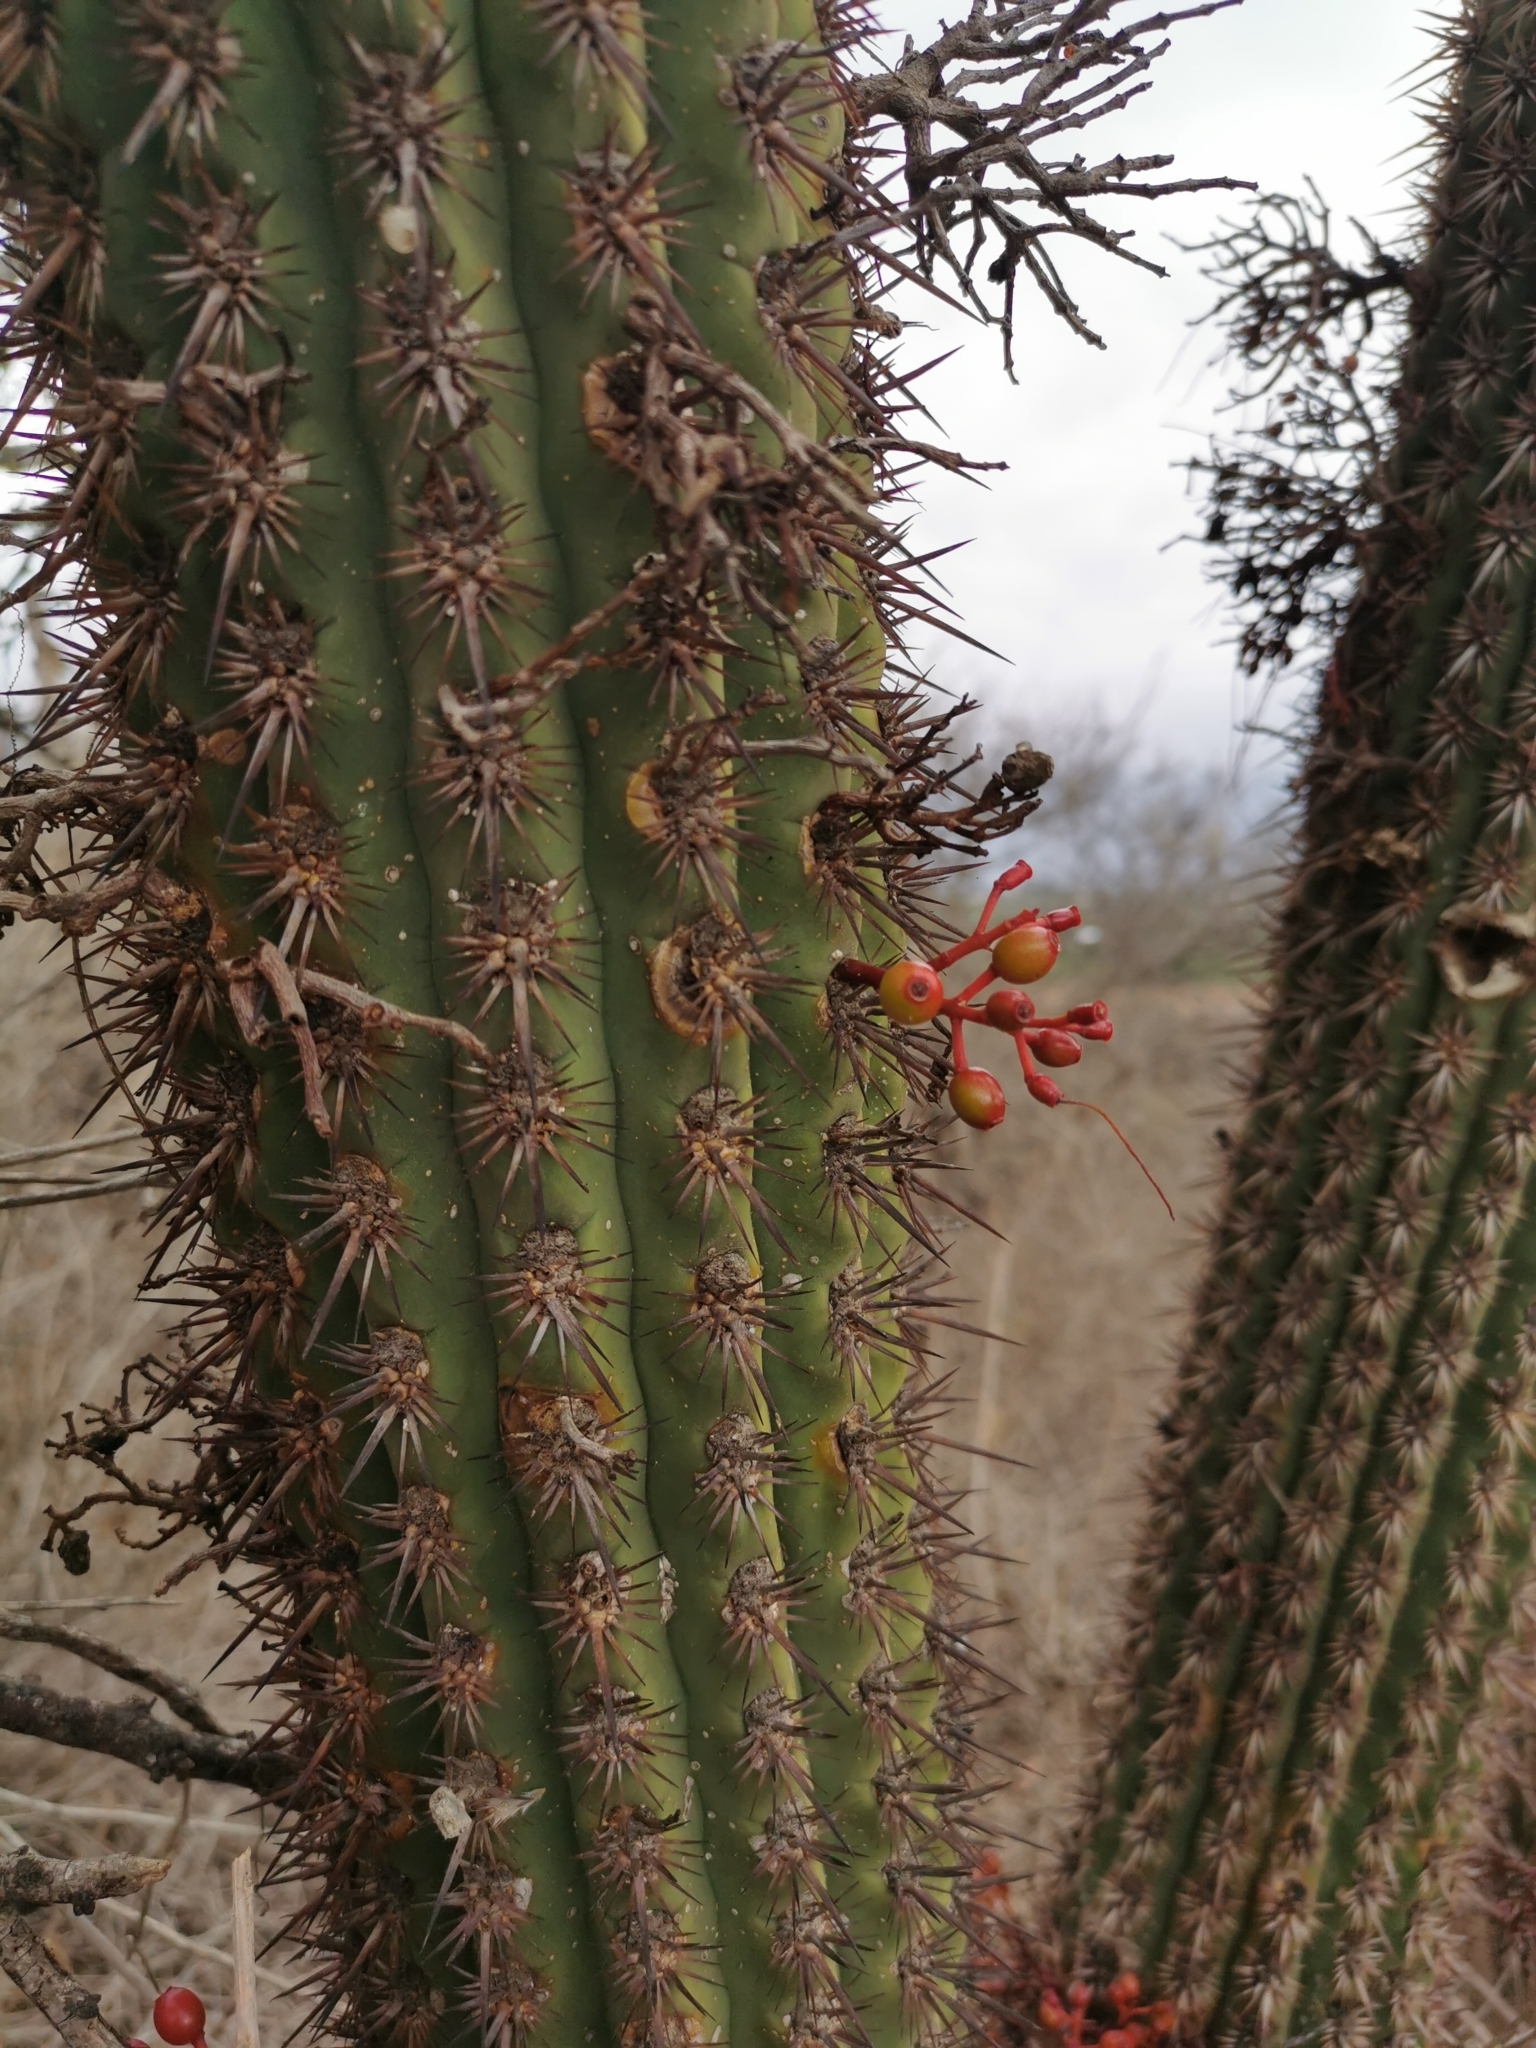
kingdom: Plantae
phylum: Tracheophyta
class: Magnoliopsida
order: Santalales
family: Loranthaceae
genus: Tristerix
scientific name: Tristerix aphyllus
